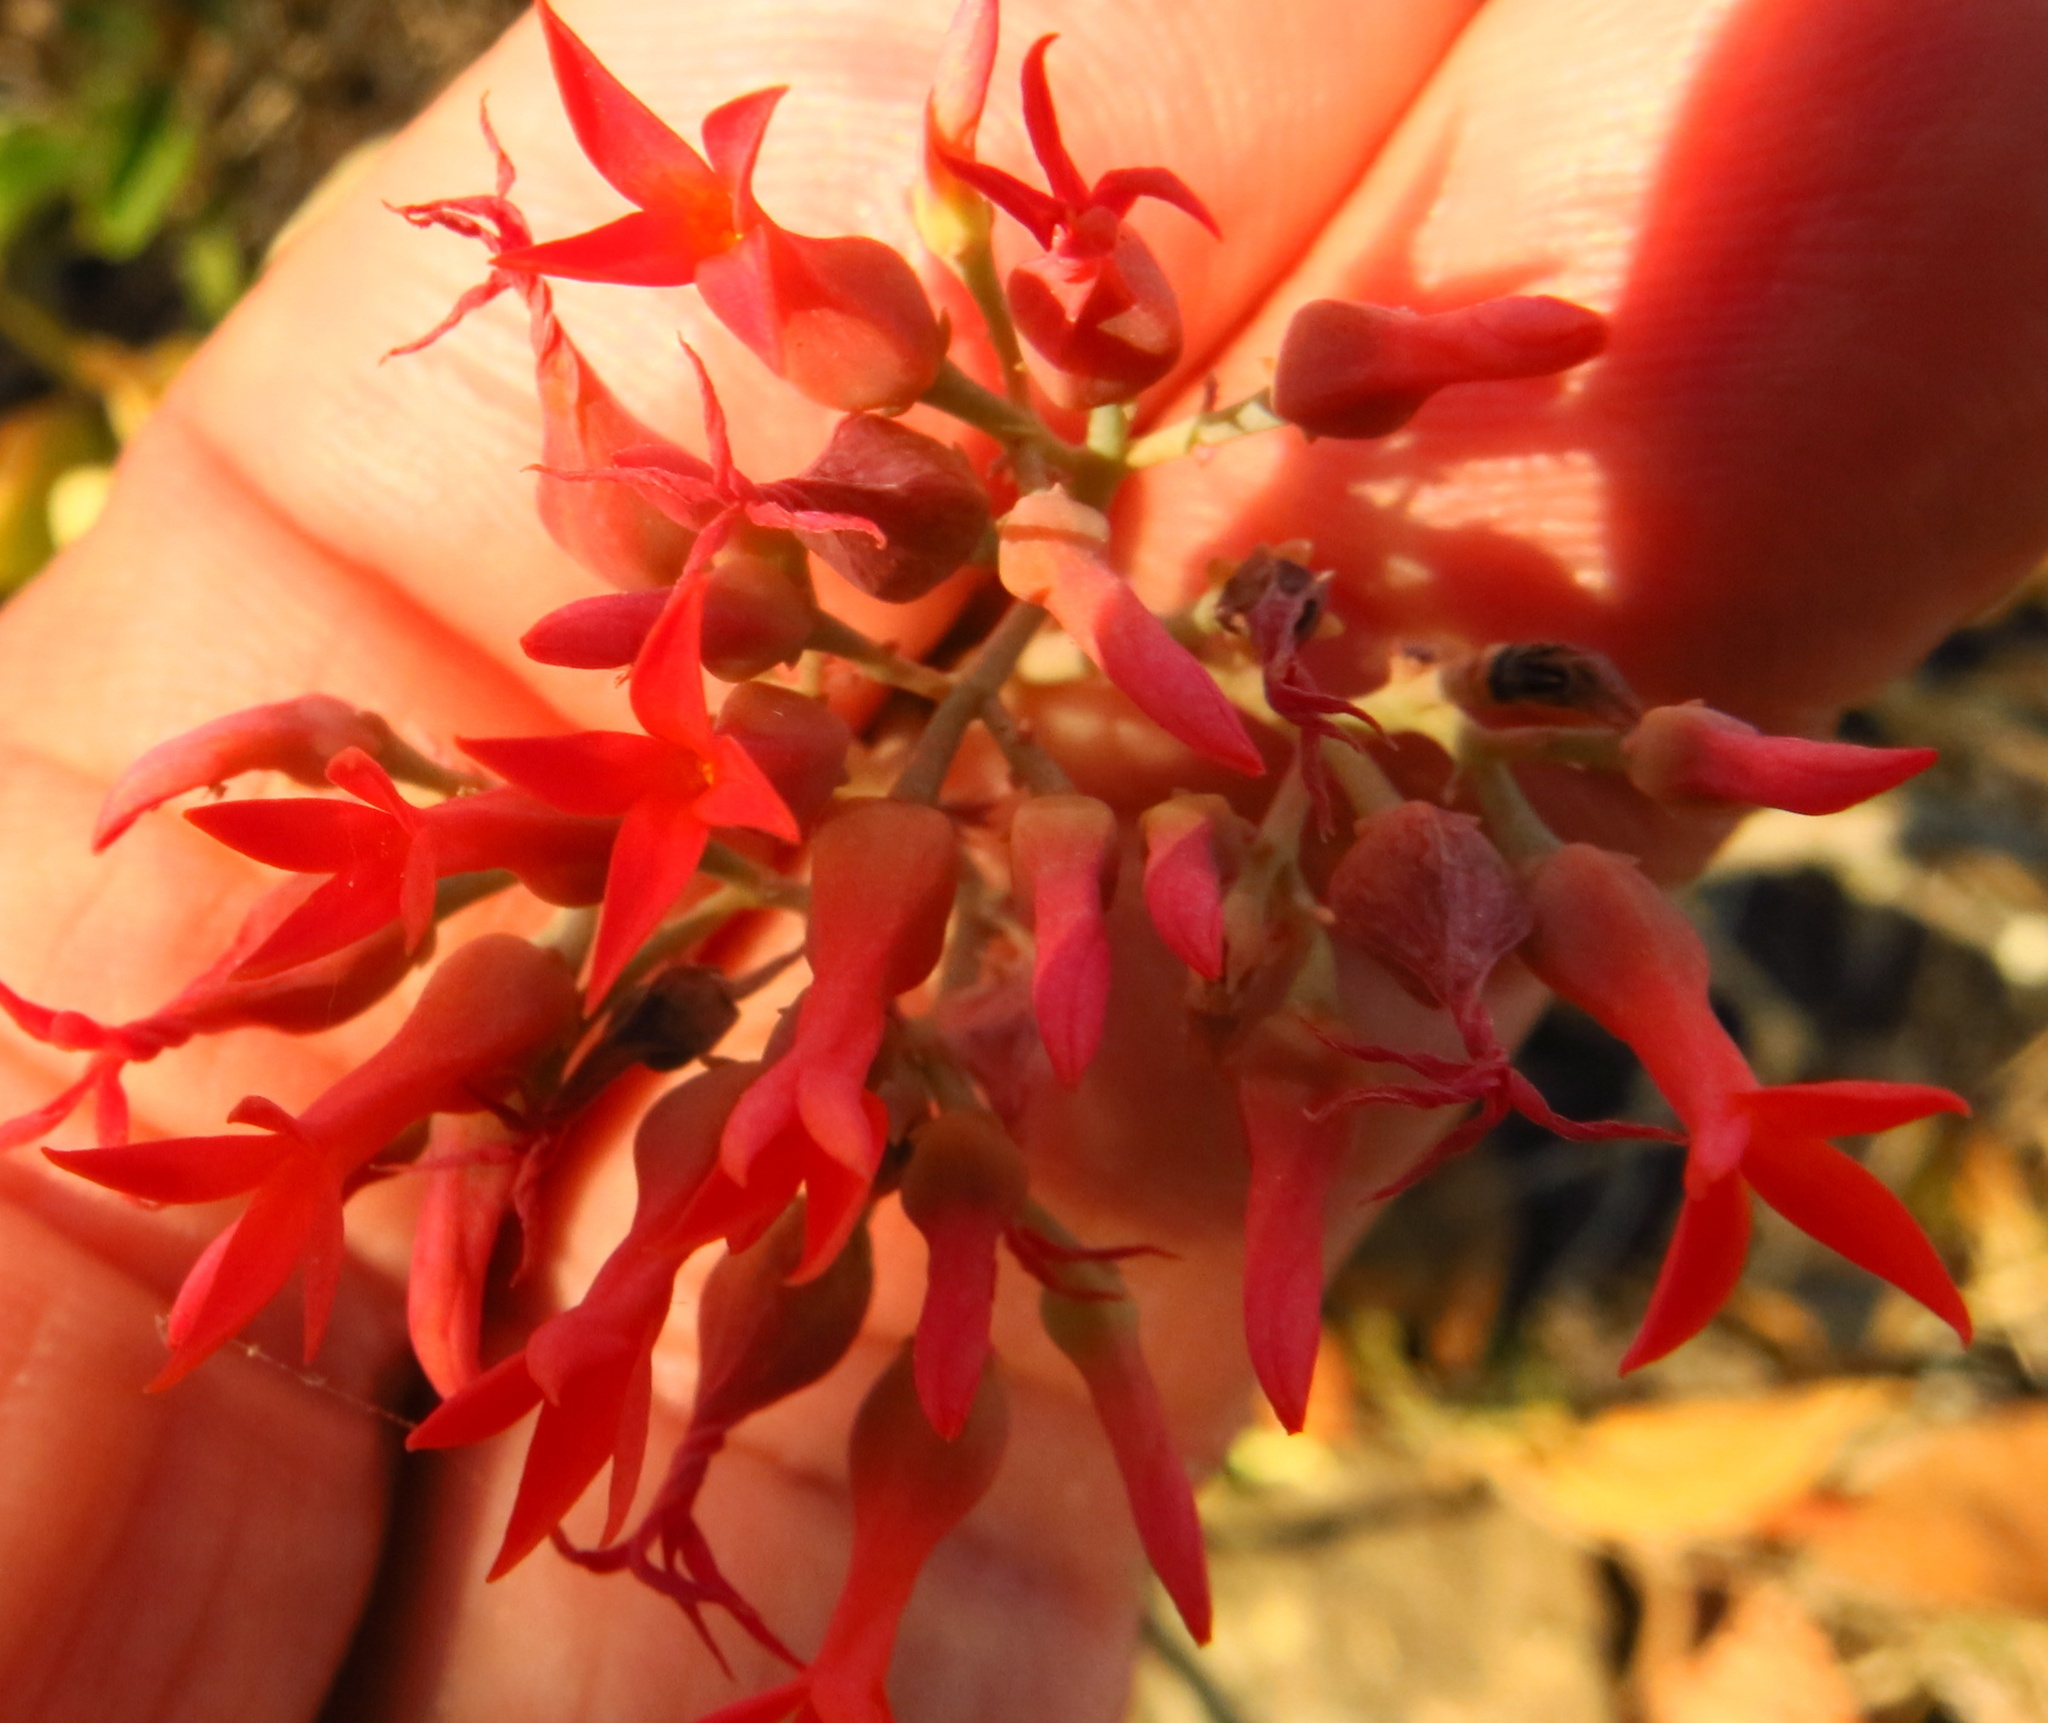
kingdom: Plantae
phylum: Tracheophyta
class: Magnoliopsida
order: Saxifragales
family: Crassulaceae
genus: Kalanchoe
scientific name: Kalanchoe rotundifolia
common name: Common kalanchoe
